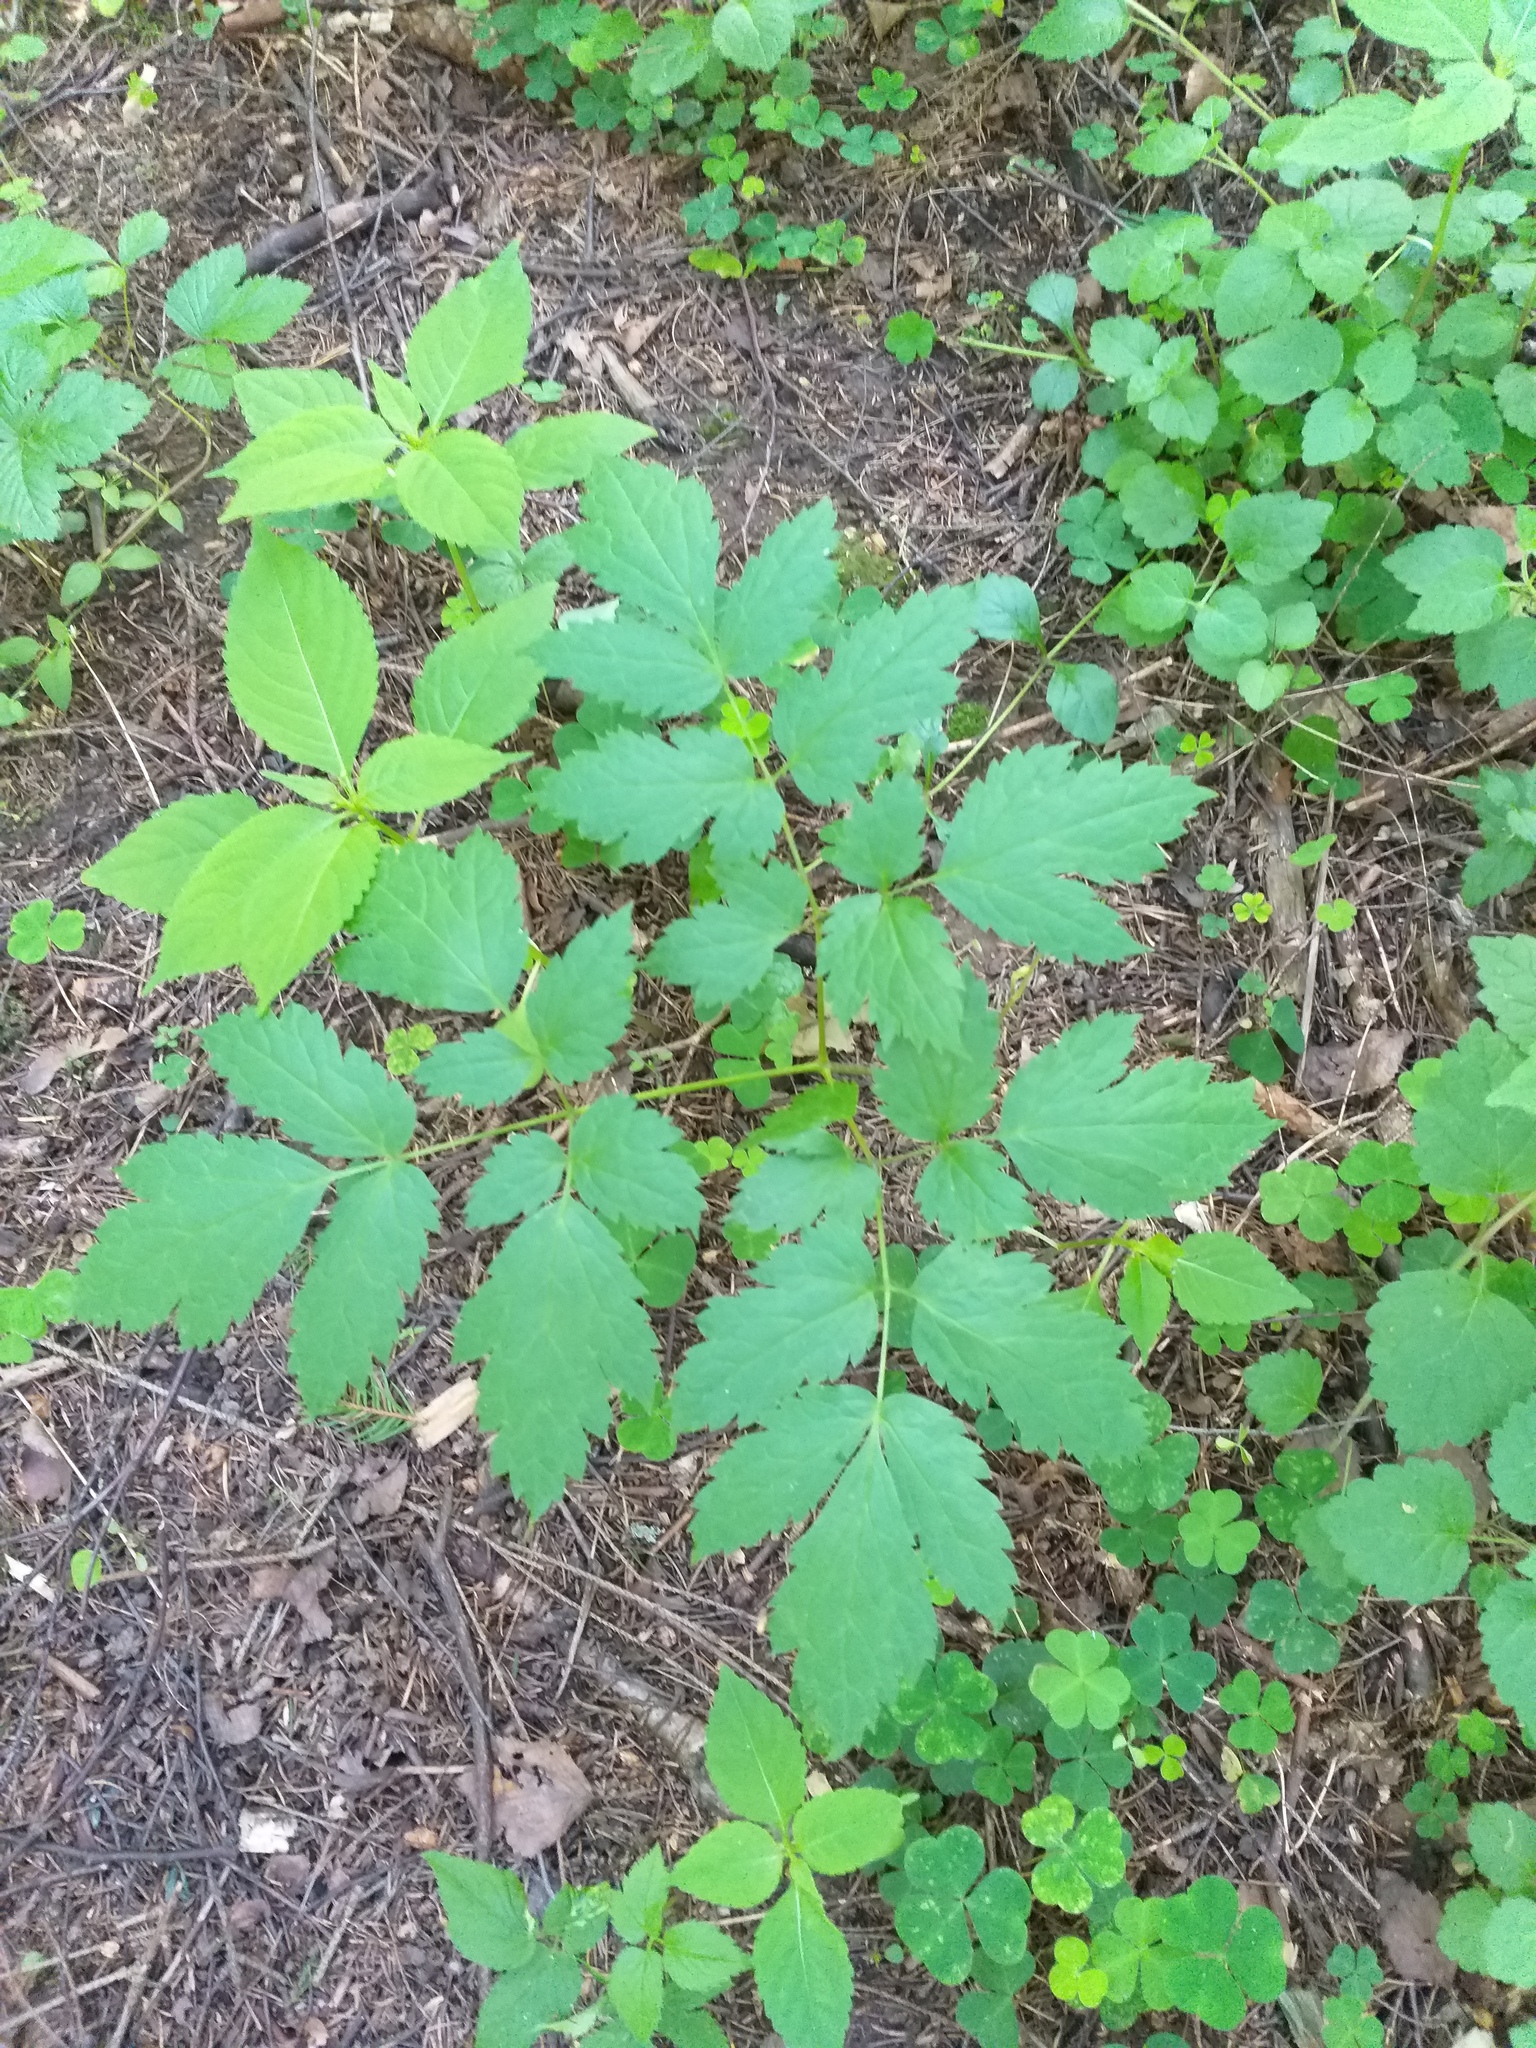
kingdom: Plantae
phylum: Tracheophyta
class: Magnoliopsida
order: Ranunculales
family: Ranunculaceae
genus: Actaea
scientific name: Actaea spicata
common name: Baneberry
